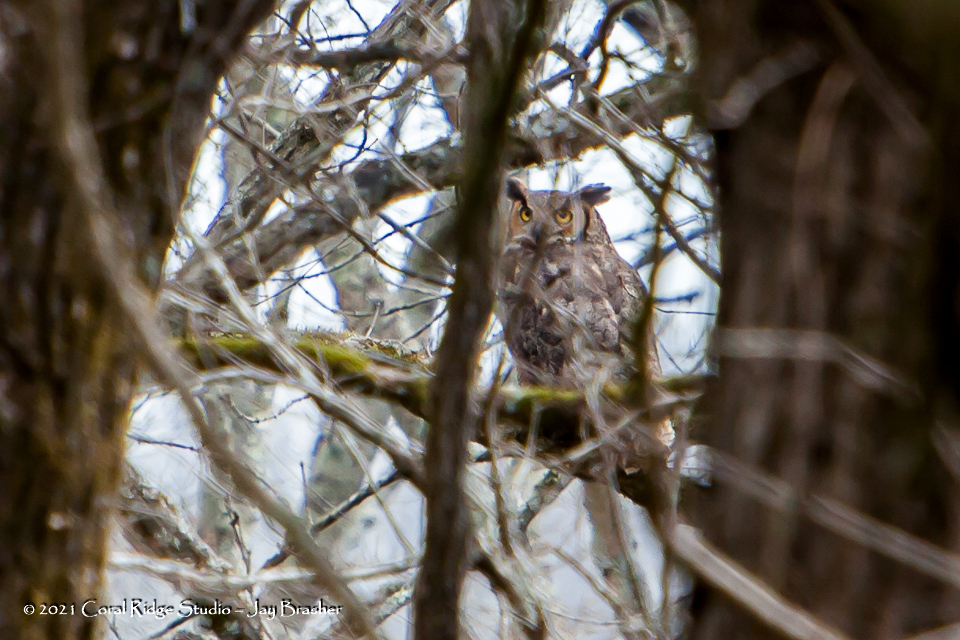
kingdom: Animalia
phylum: Chordata
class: Aves
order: Strigiformes
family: Strigidae
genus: Bubo
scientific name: Bubo virginianus
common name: Great horned owl
